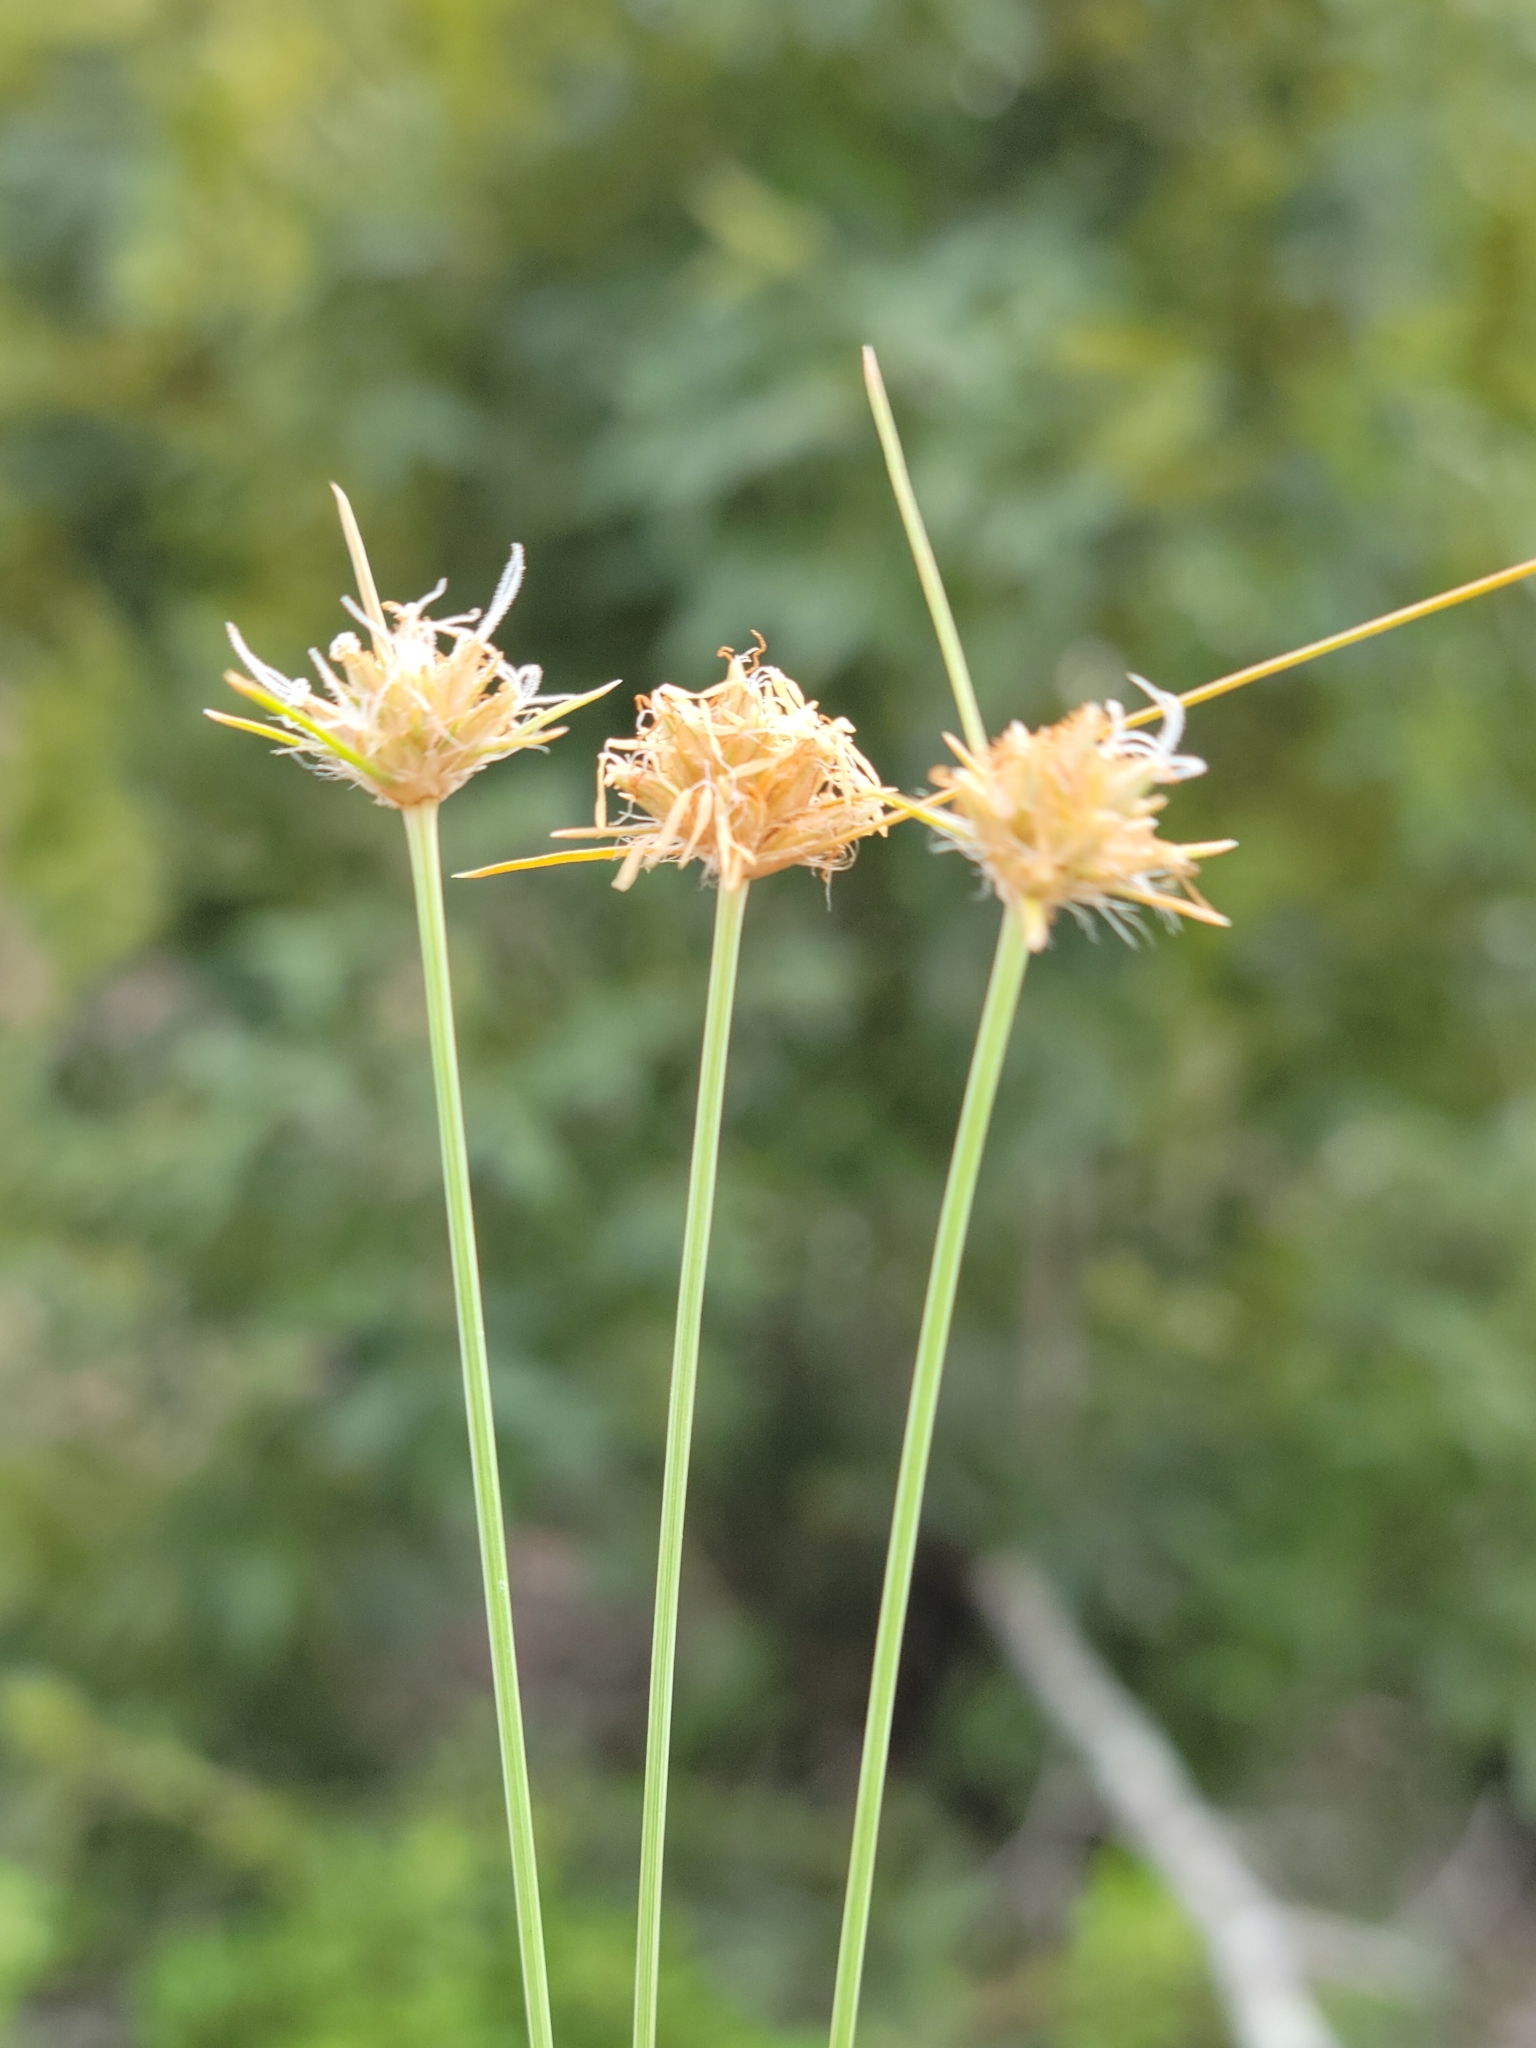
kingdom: Plantae
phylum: Tracheophyta
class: Liliopsida
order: Poales
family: Cyperaceae
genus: Bulbostylis
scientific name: Bulbostylis warei
